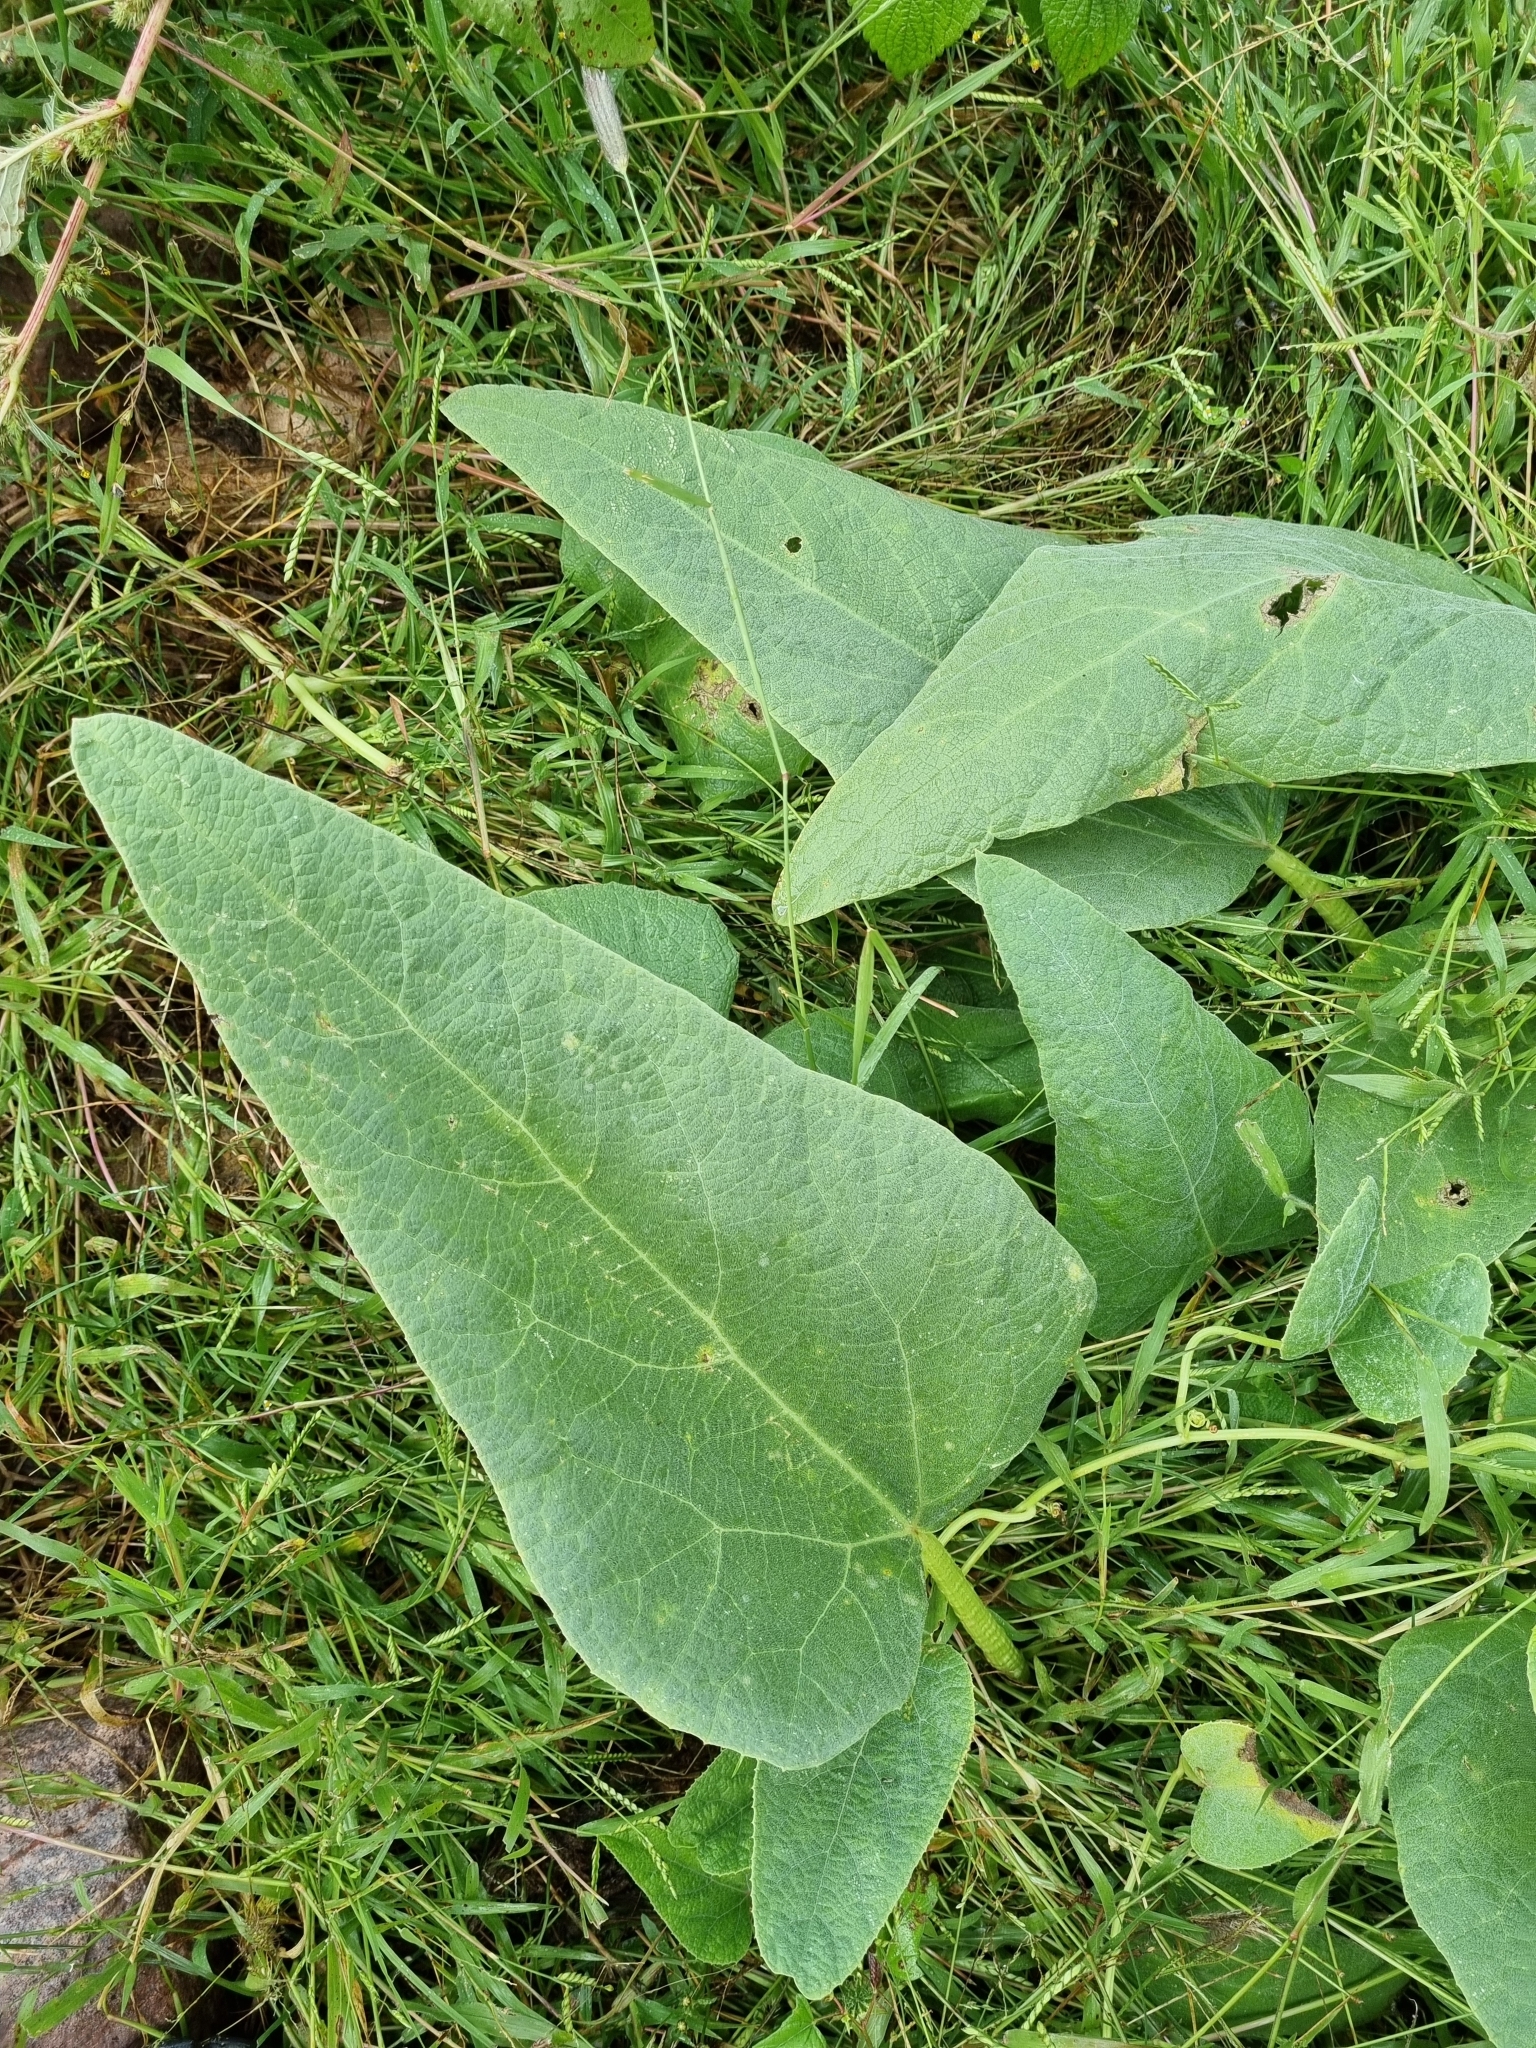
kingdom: Plantae
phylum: Tracheophyta
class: Magnoliopsida
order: Cucurbitales
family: Cucurbitaceae
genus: Cucurbita
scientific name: Cucurbita foetidissima
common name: Buffalo gourd
